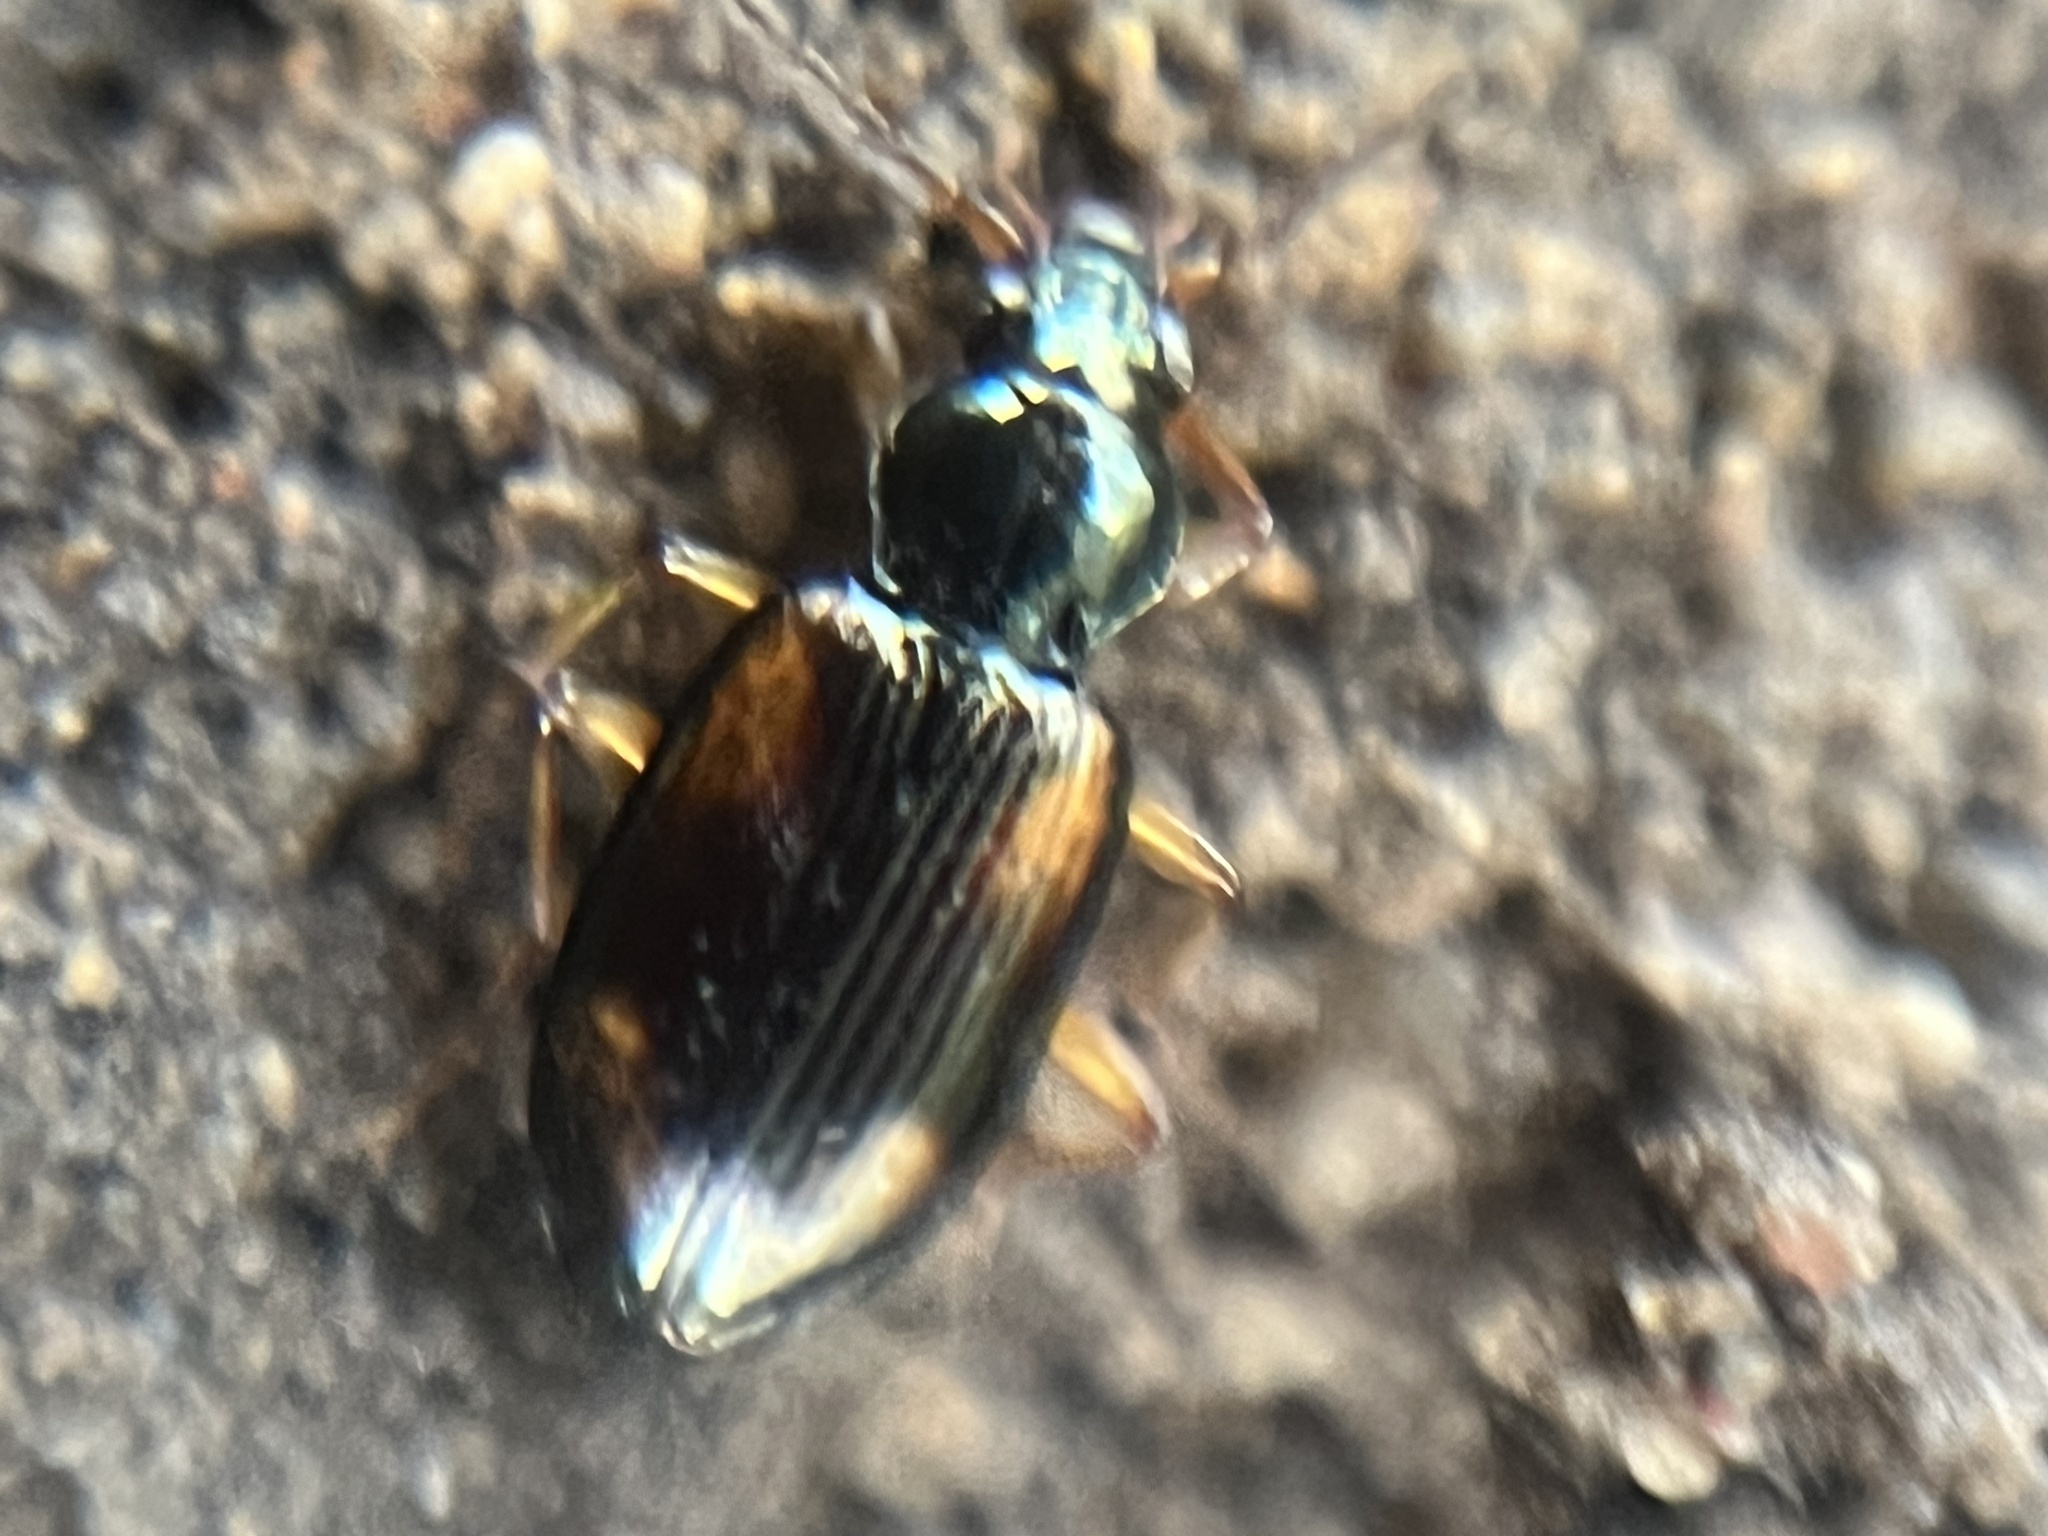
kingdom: Animalia
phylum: Arthropoda
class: Insecta
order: Coleoptera
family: Carabidae
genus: Bembidion
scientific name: Bembidion tetracolum
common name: Seine riverbank ground beetle
